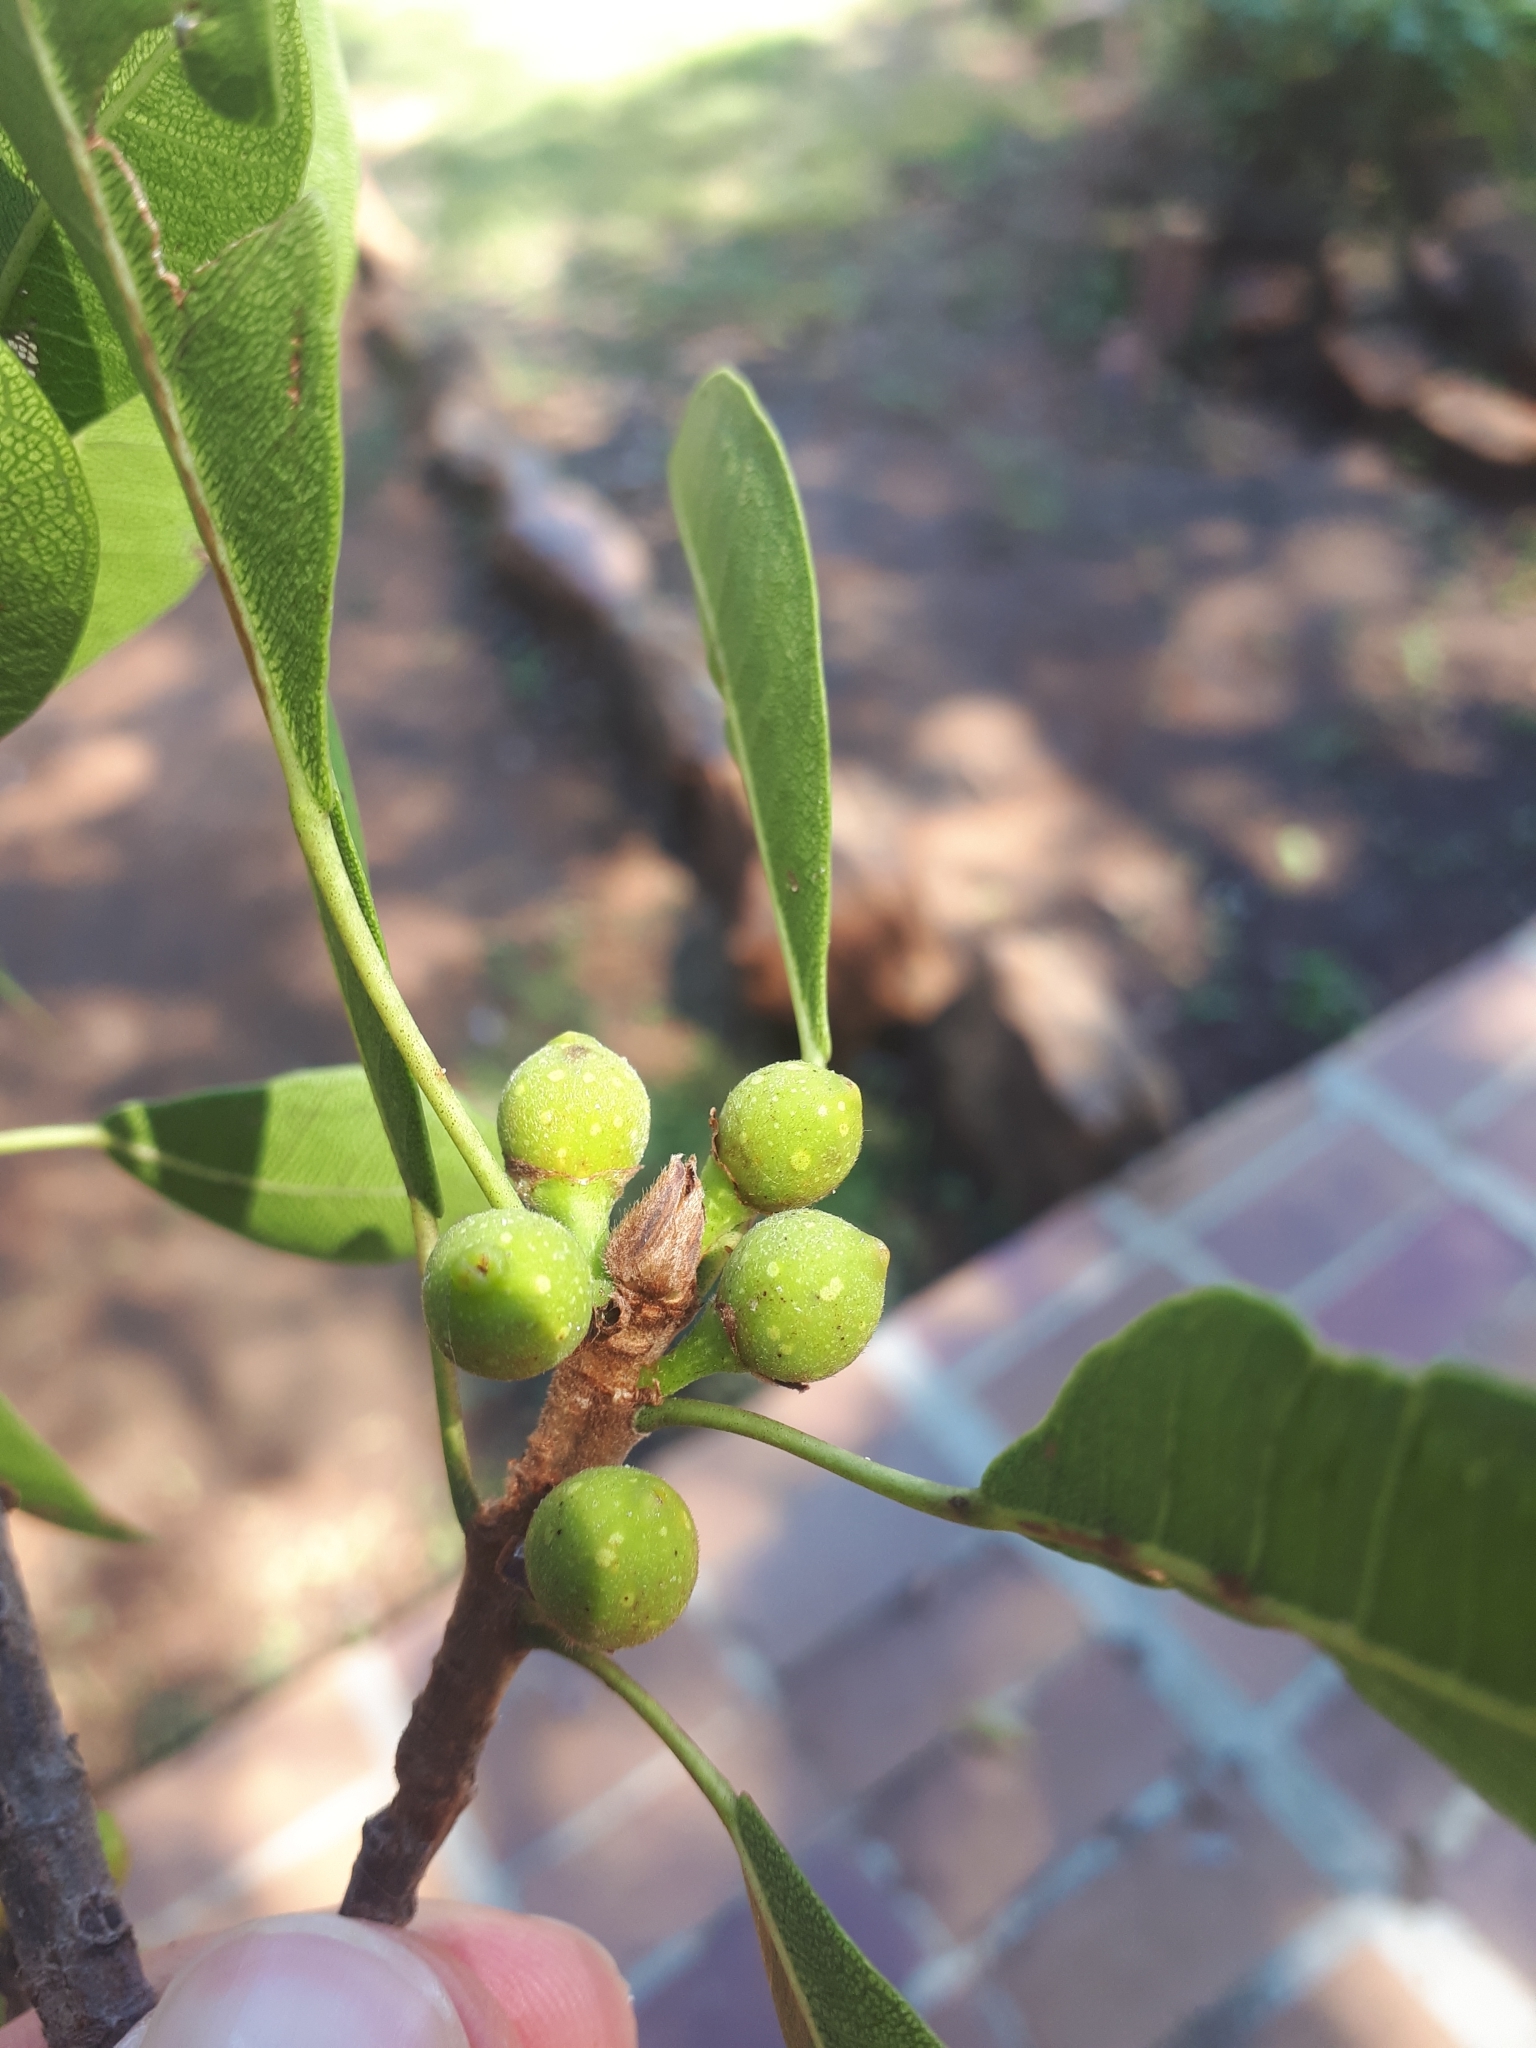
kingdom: Plantae
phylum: Tracheophyta
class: Magnoliopsida
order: Rosales
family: Moraceae
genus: Ficus
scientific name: Ficus thonningii
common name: Fig
